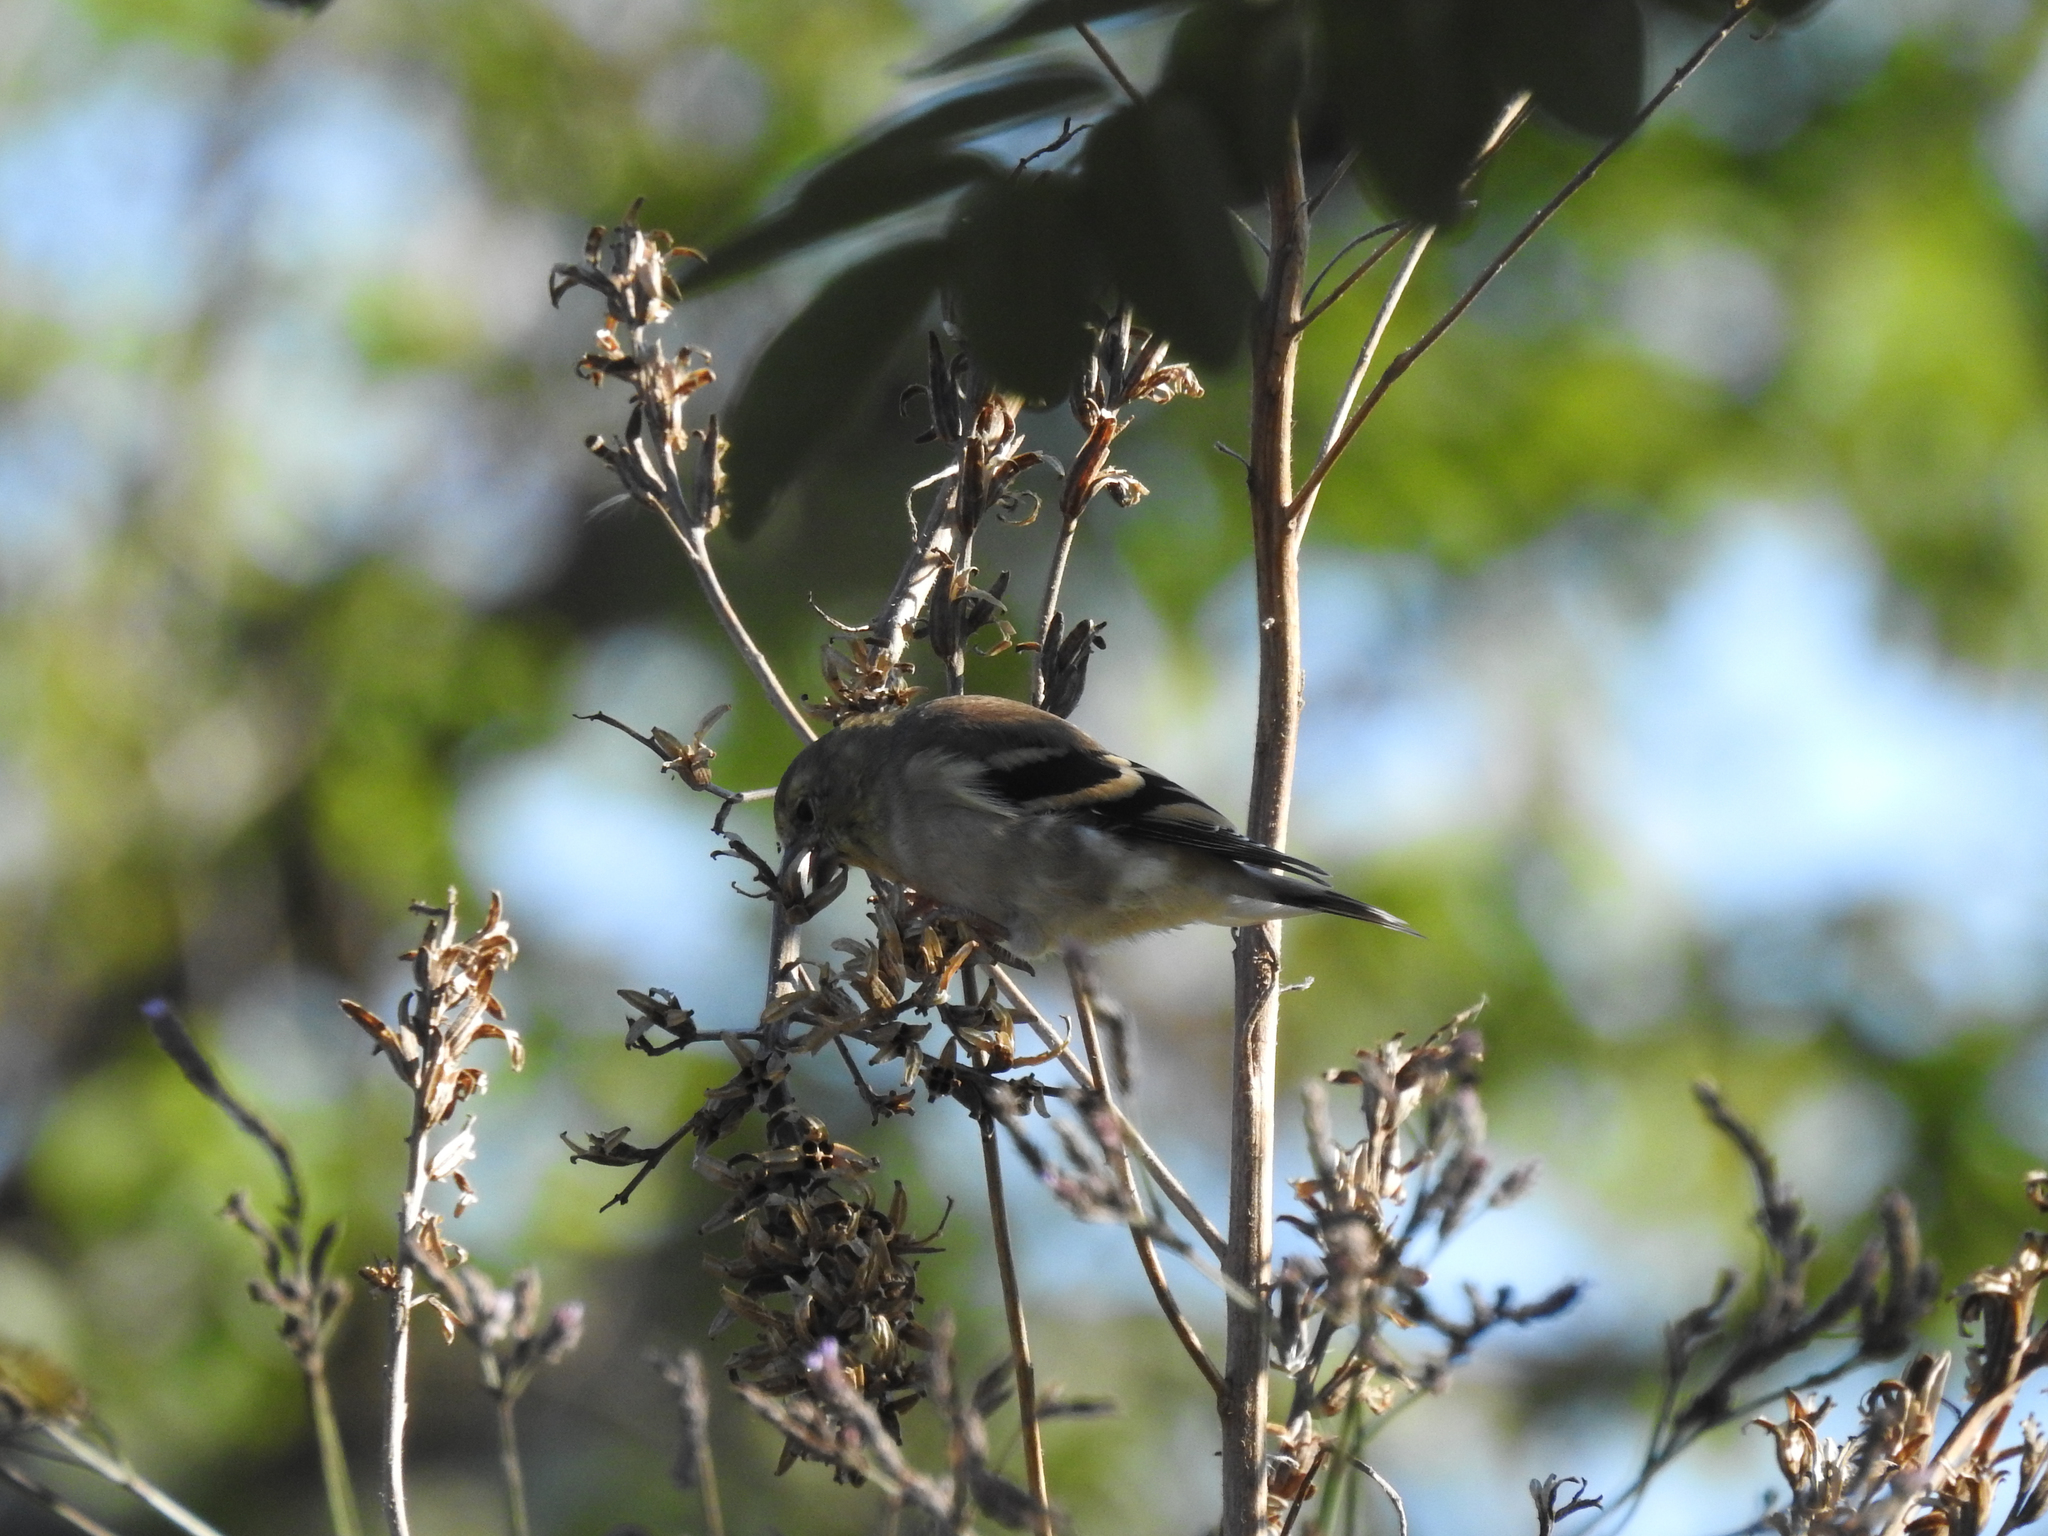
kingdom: Animalia
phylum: Chordata
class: Aves
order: Passeriformes
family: Fringillidae
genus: Spinus
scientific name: Spinus tristis
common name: American goldfinch
